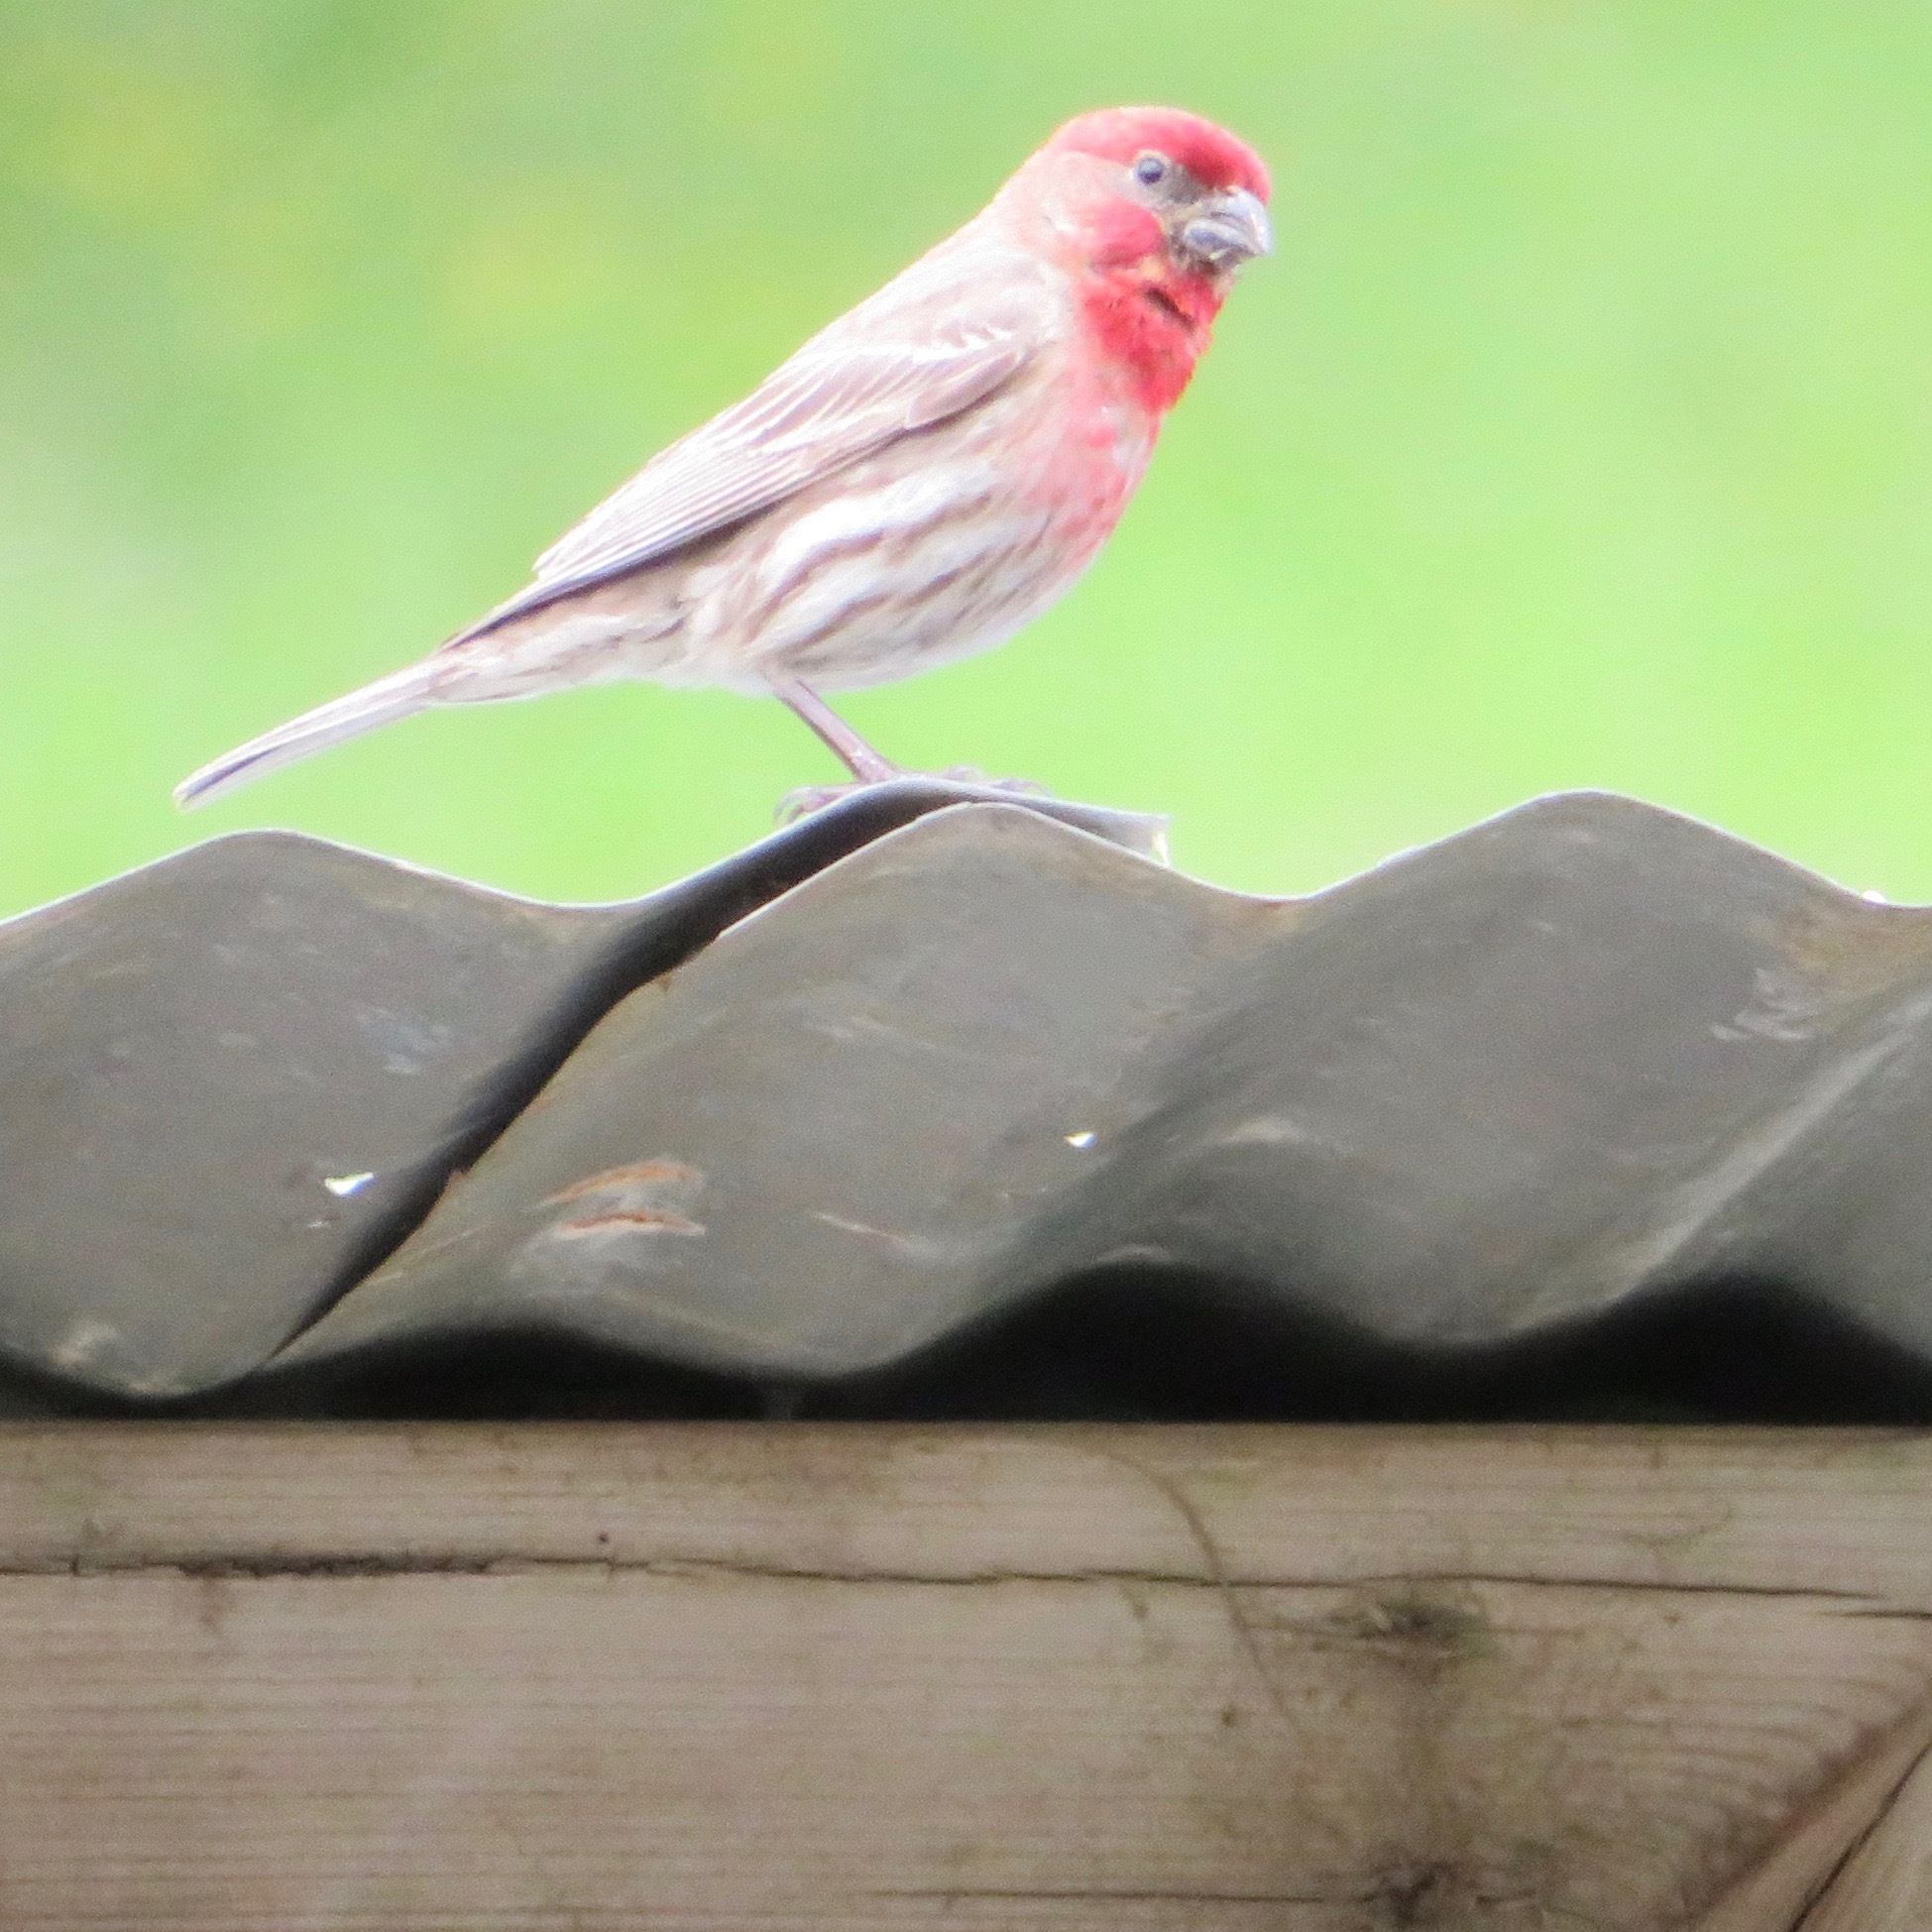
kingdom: Animalia
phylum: Chordata
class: Aves
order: Passeriformes
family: Fringillidae
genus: Haemorhous
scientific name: Haemorhous mexicanus
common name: House finch
